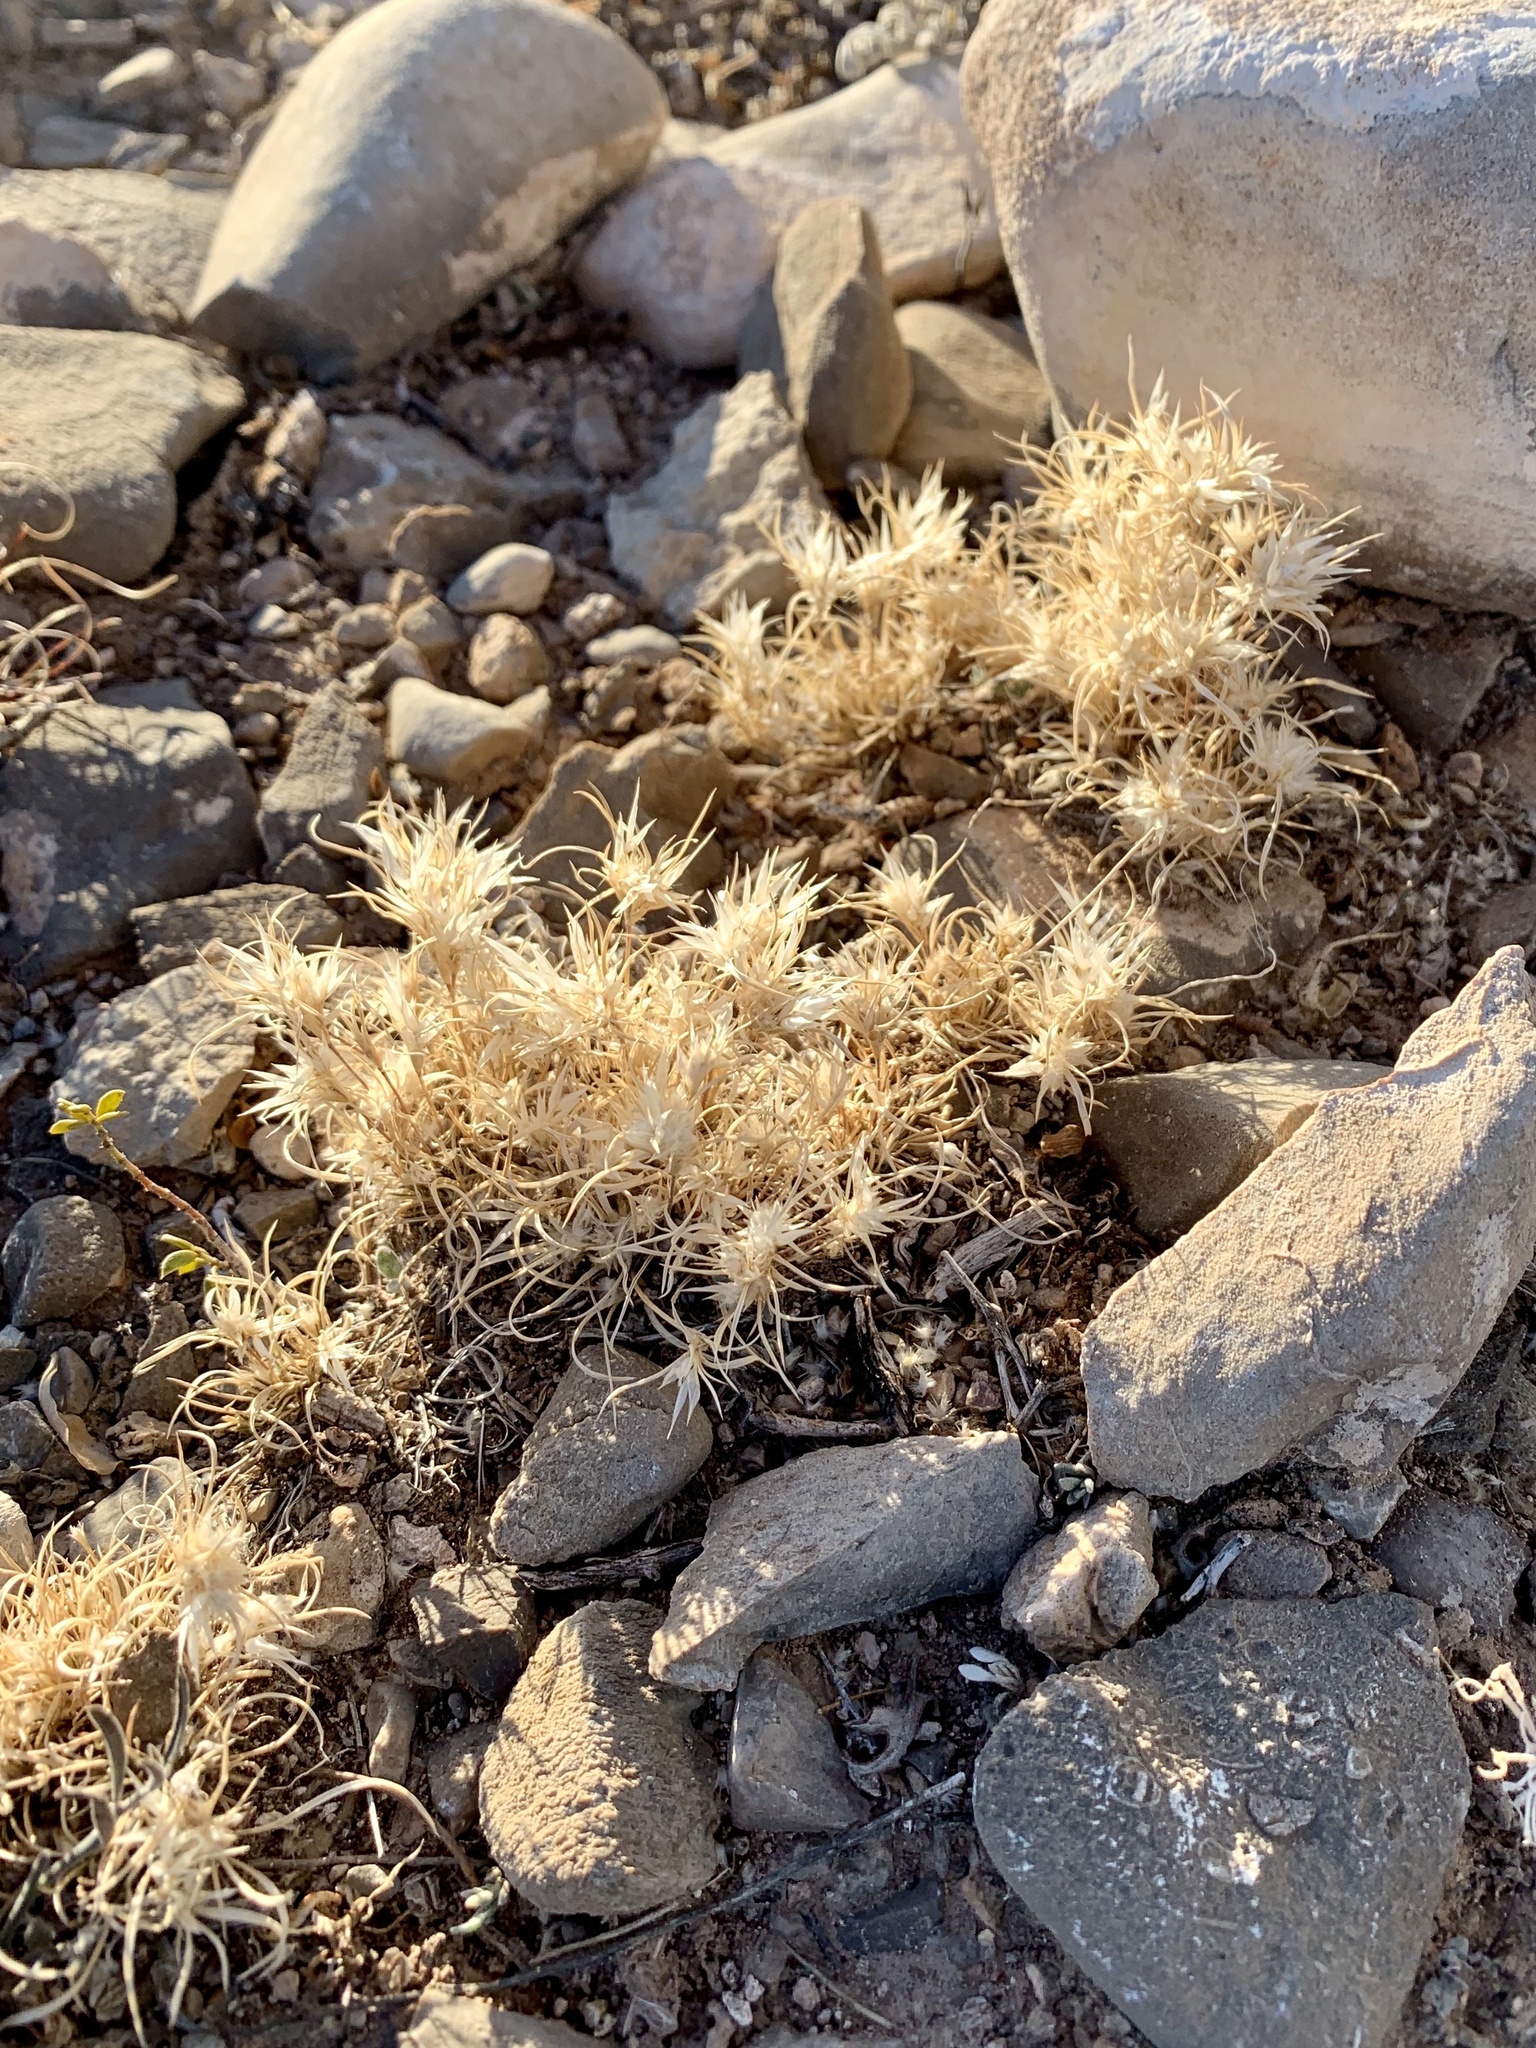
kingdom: Plantae
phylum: Tracheophyta
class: Liliopsida
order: Poales
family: Poaceae
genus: Dasyochloa
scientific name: Dasyochloa pulchella
